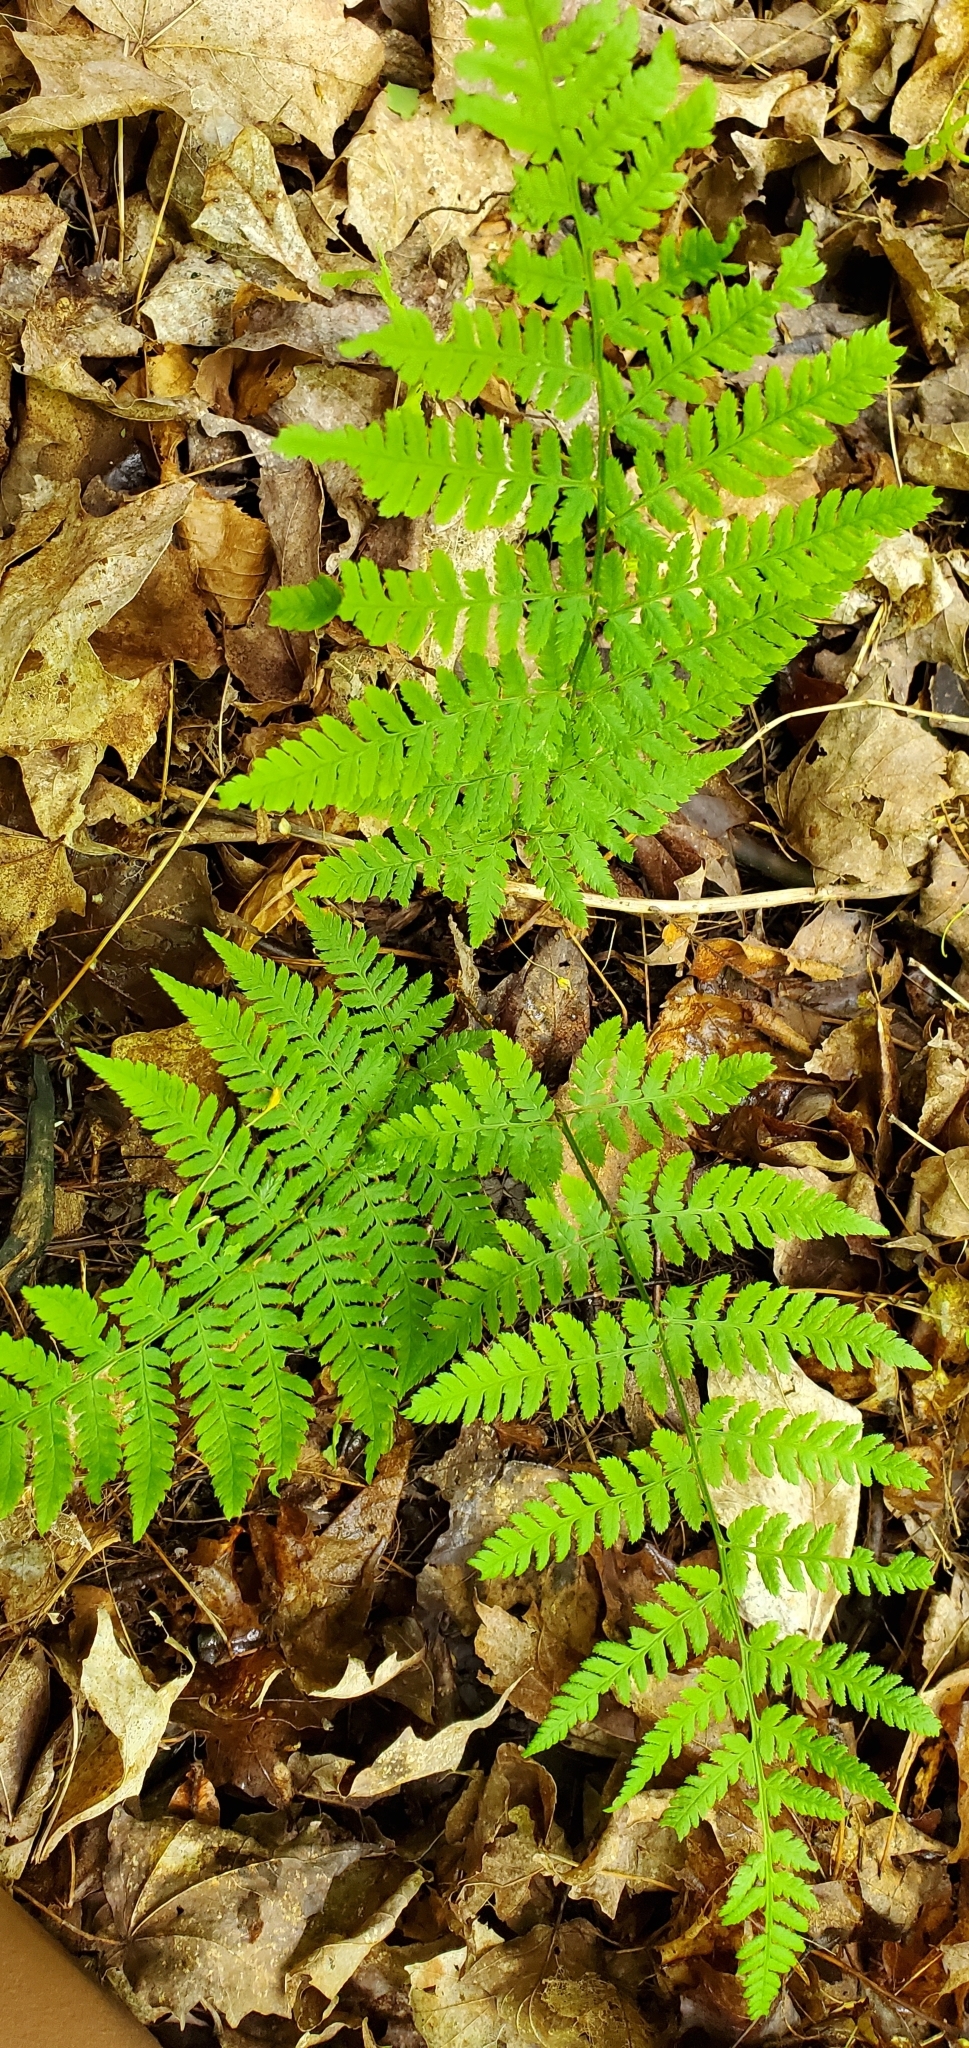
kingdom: Plantae
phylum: Tracheophyta
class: Polypodiopsida
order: Polypodiales
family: Dryopteridaceae
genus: Dryopteris
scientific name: Dryopteris carthusiana
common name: Narrow buckler-fern
